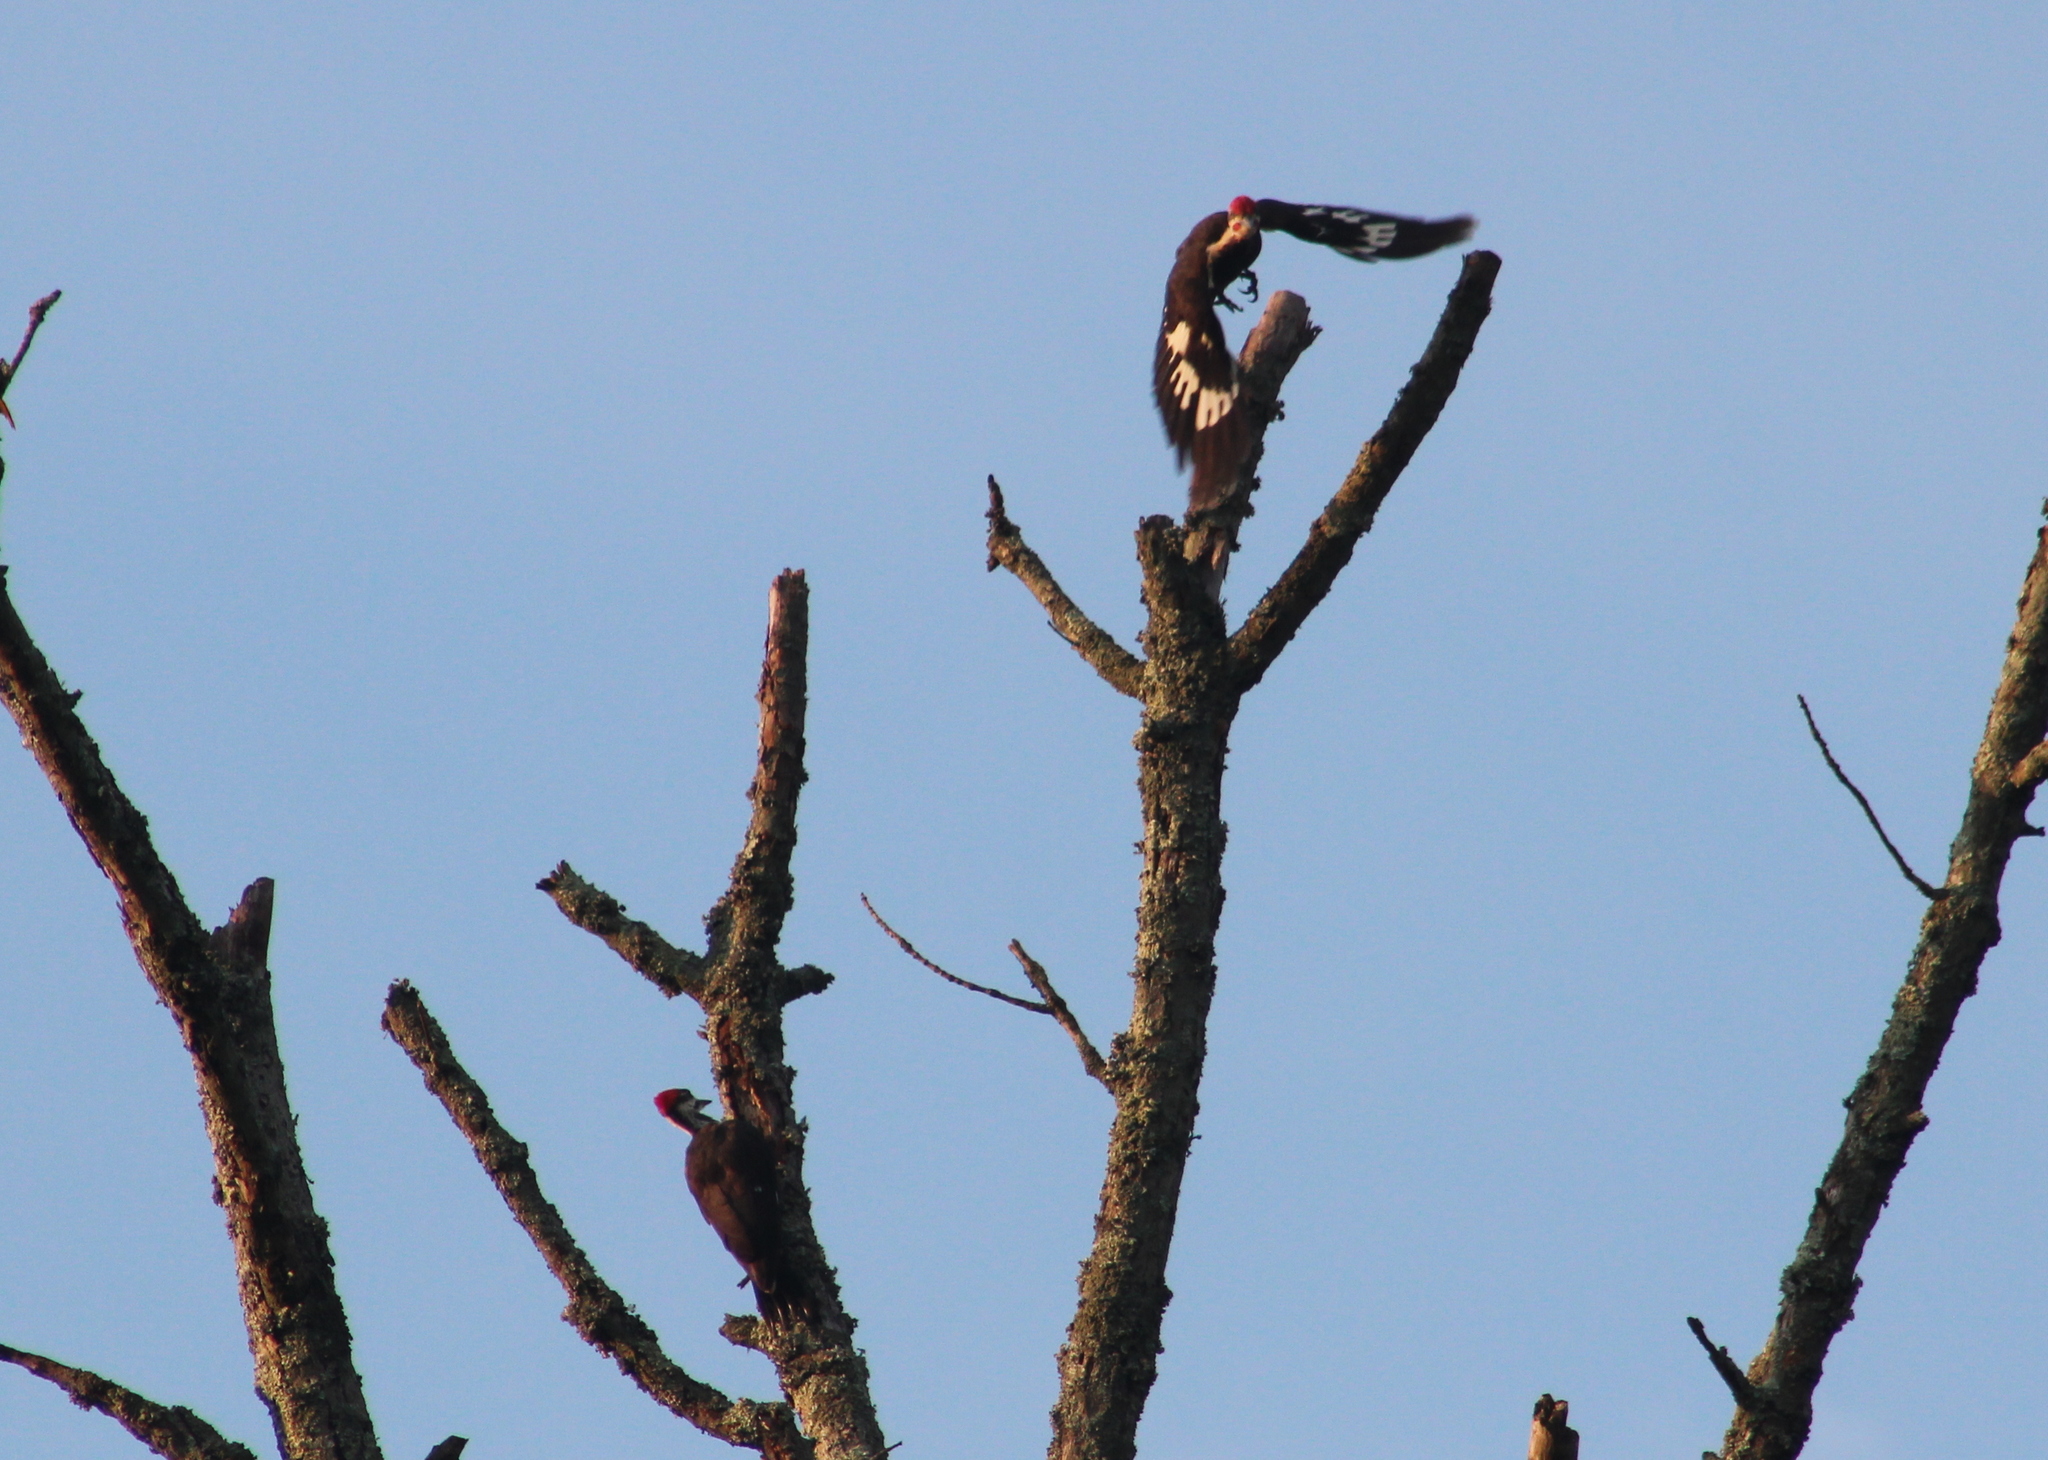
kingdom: Animalia
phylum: Chordata
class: Aves
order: Piciformes
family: Picidae
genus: Dryocopus
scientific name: Dryocopus pileatus
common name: Pileated woodpecker
